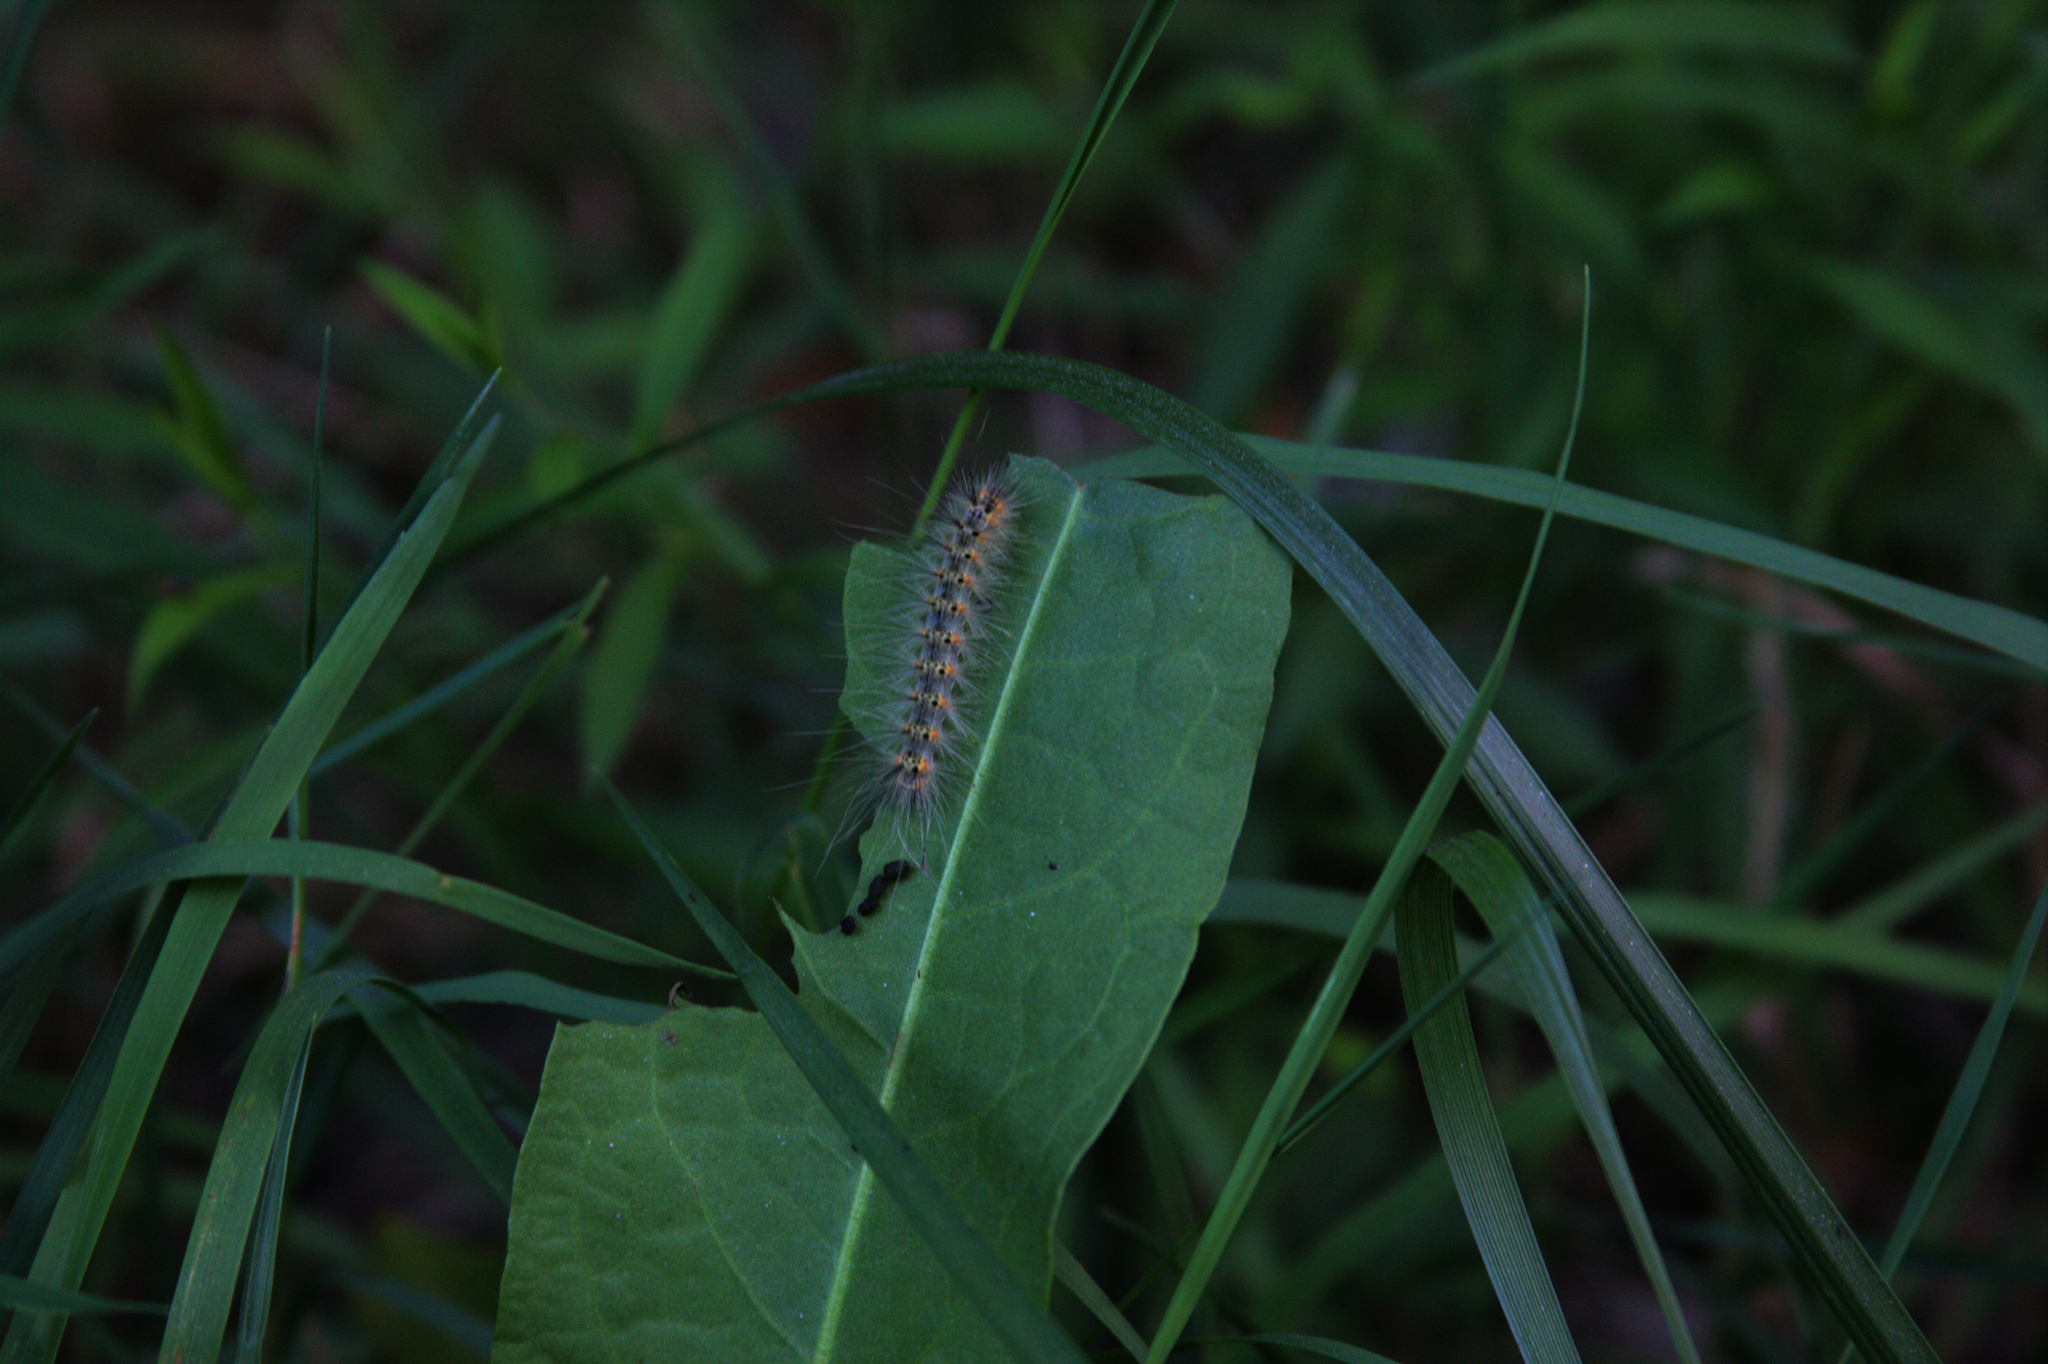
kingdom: Animalia
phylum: Arthropoda
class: Insecta
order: Lepidoptera
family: Erebidae
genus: Hyphantria
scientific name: Hyphantria cunea
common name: American white moth
